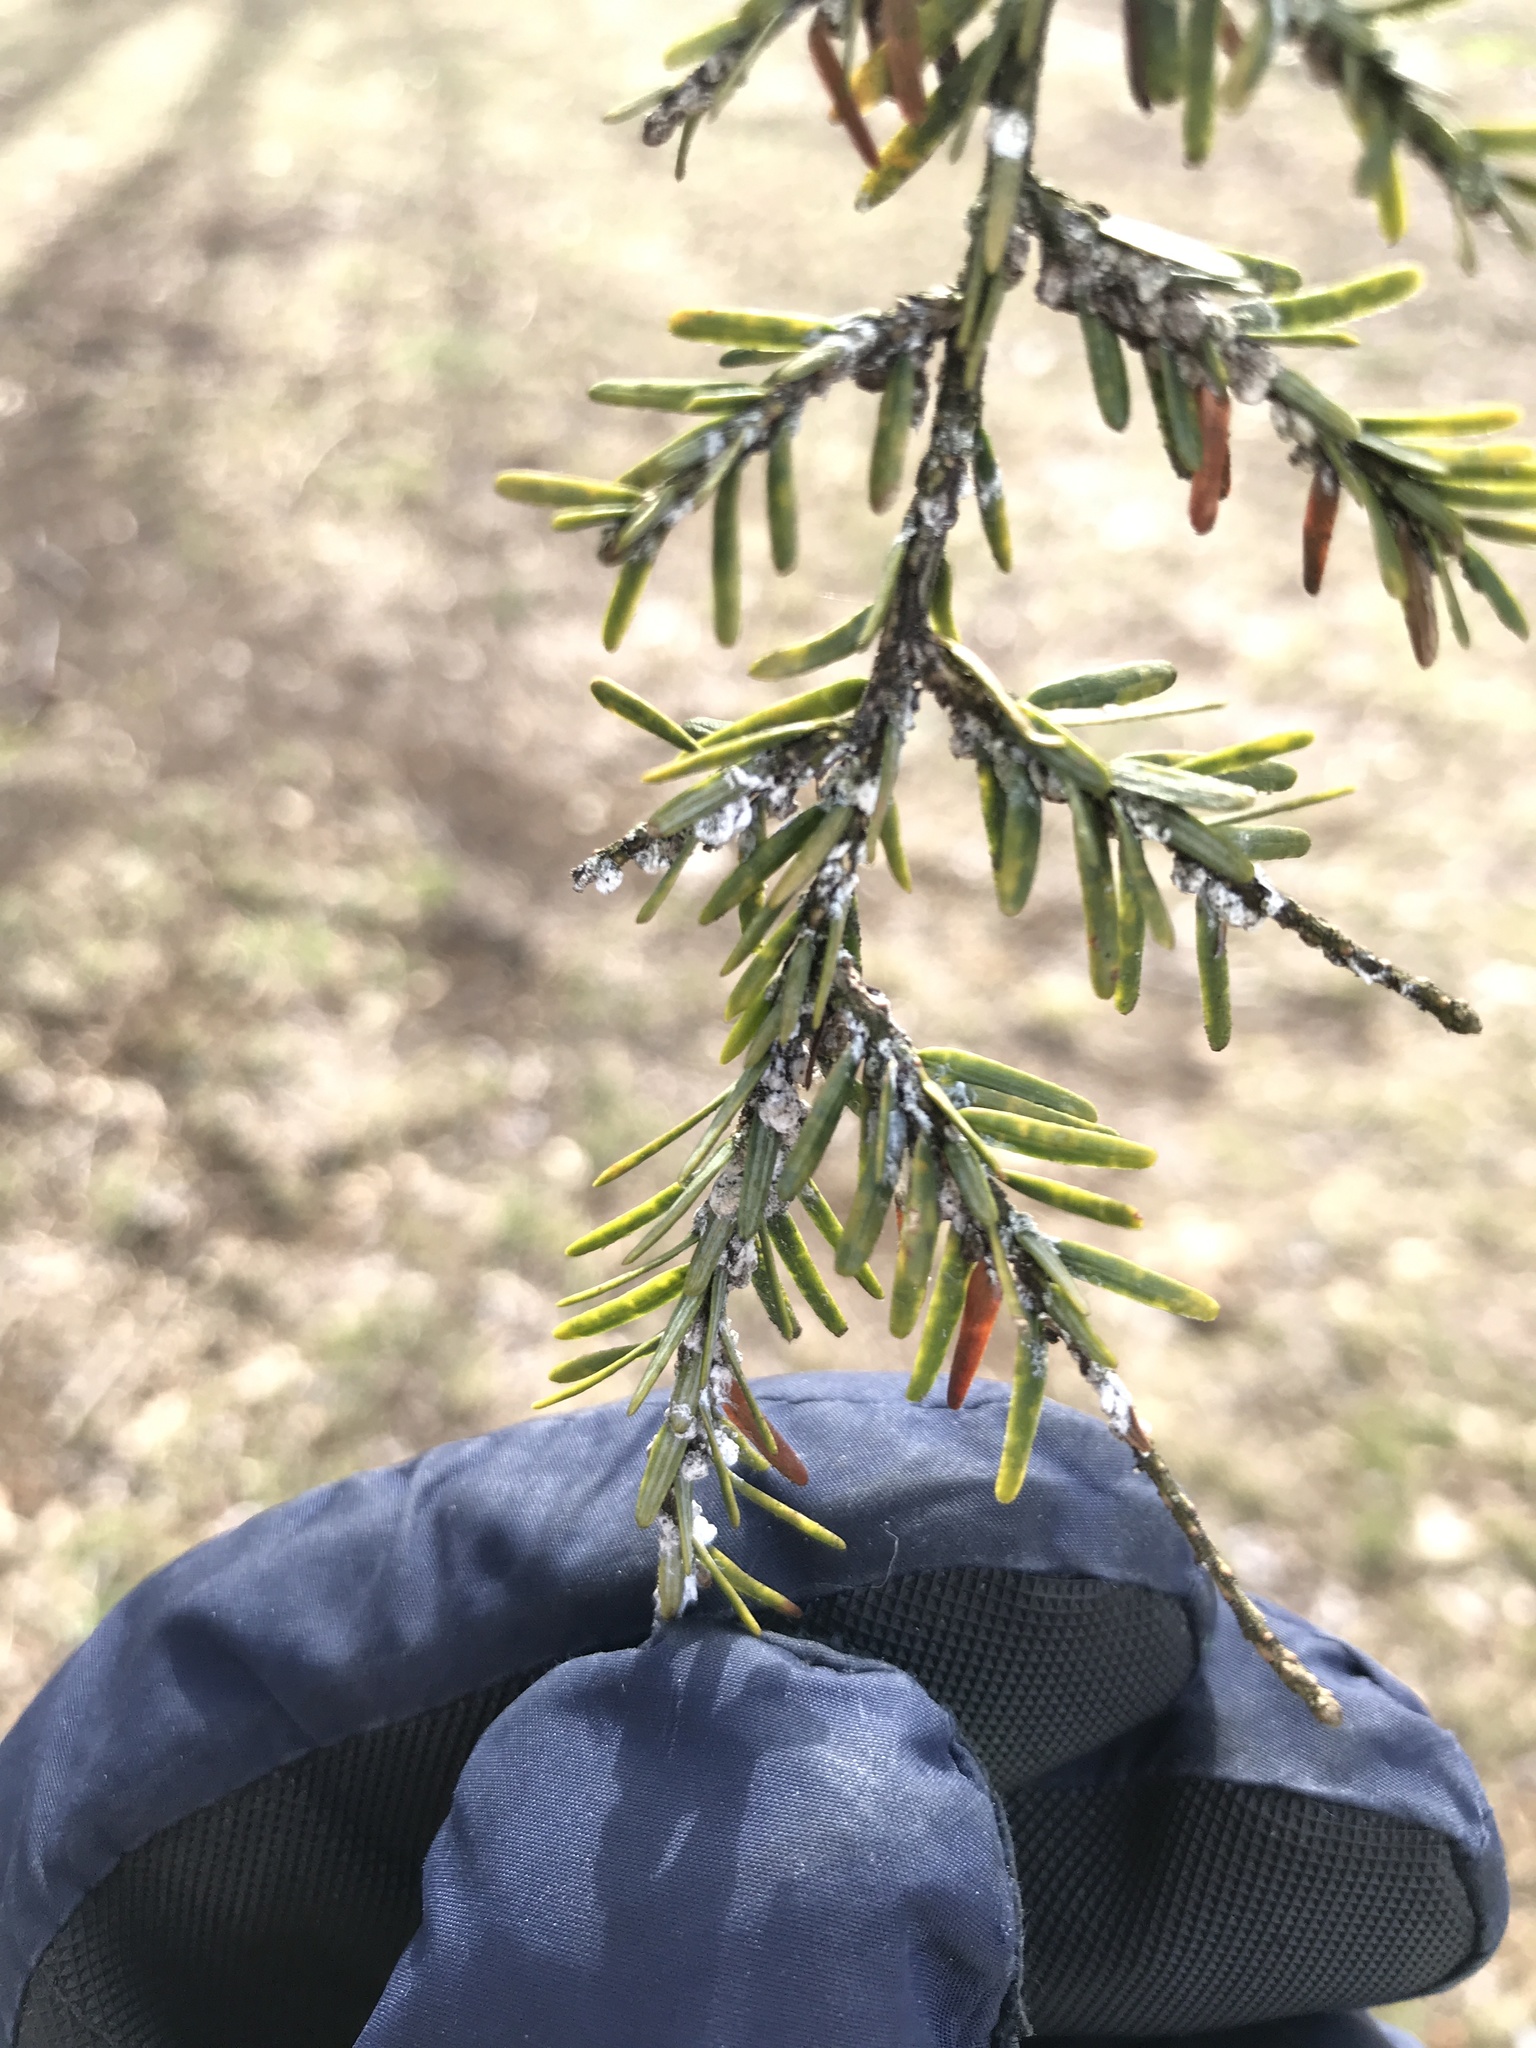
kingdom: Animalia
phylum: Arthropoda
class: Insecta
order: Hemiptera
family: Adelgidae
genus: Adelges
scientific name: Adelges tsugae
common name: Hemlock woolly adelgid
